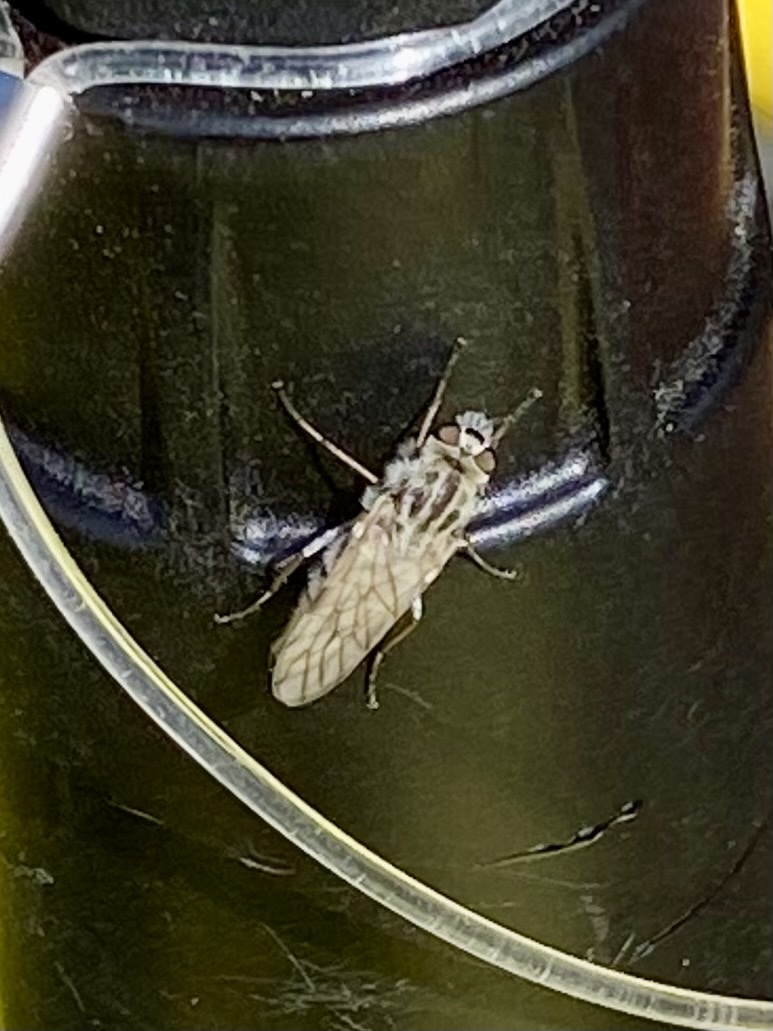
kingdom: Animalia
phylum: Arthropoda
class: Insecta
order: Diptera
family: Therevidae
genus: Thereva
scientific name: Thereva
